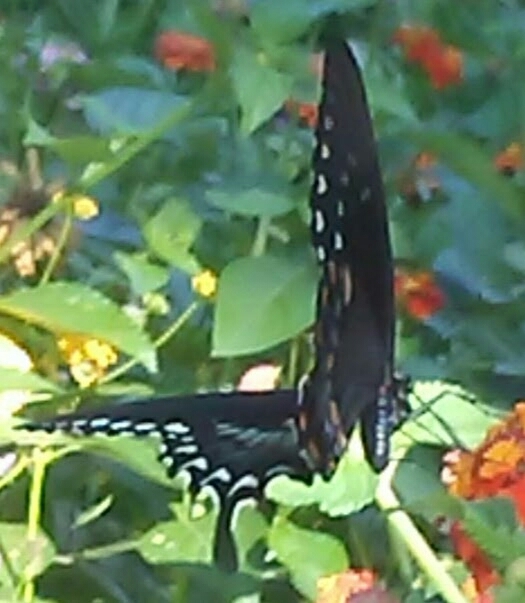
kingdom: Animalia
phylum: Arthropoda
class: Insecta
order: Lepidoptera
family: Papilionidae
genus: Papilio
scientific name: Papilio troilus
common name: Spicebush swallowtail
